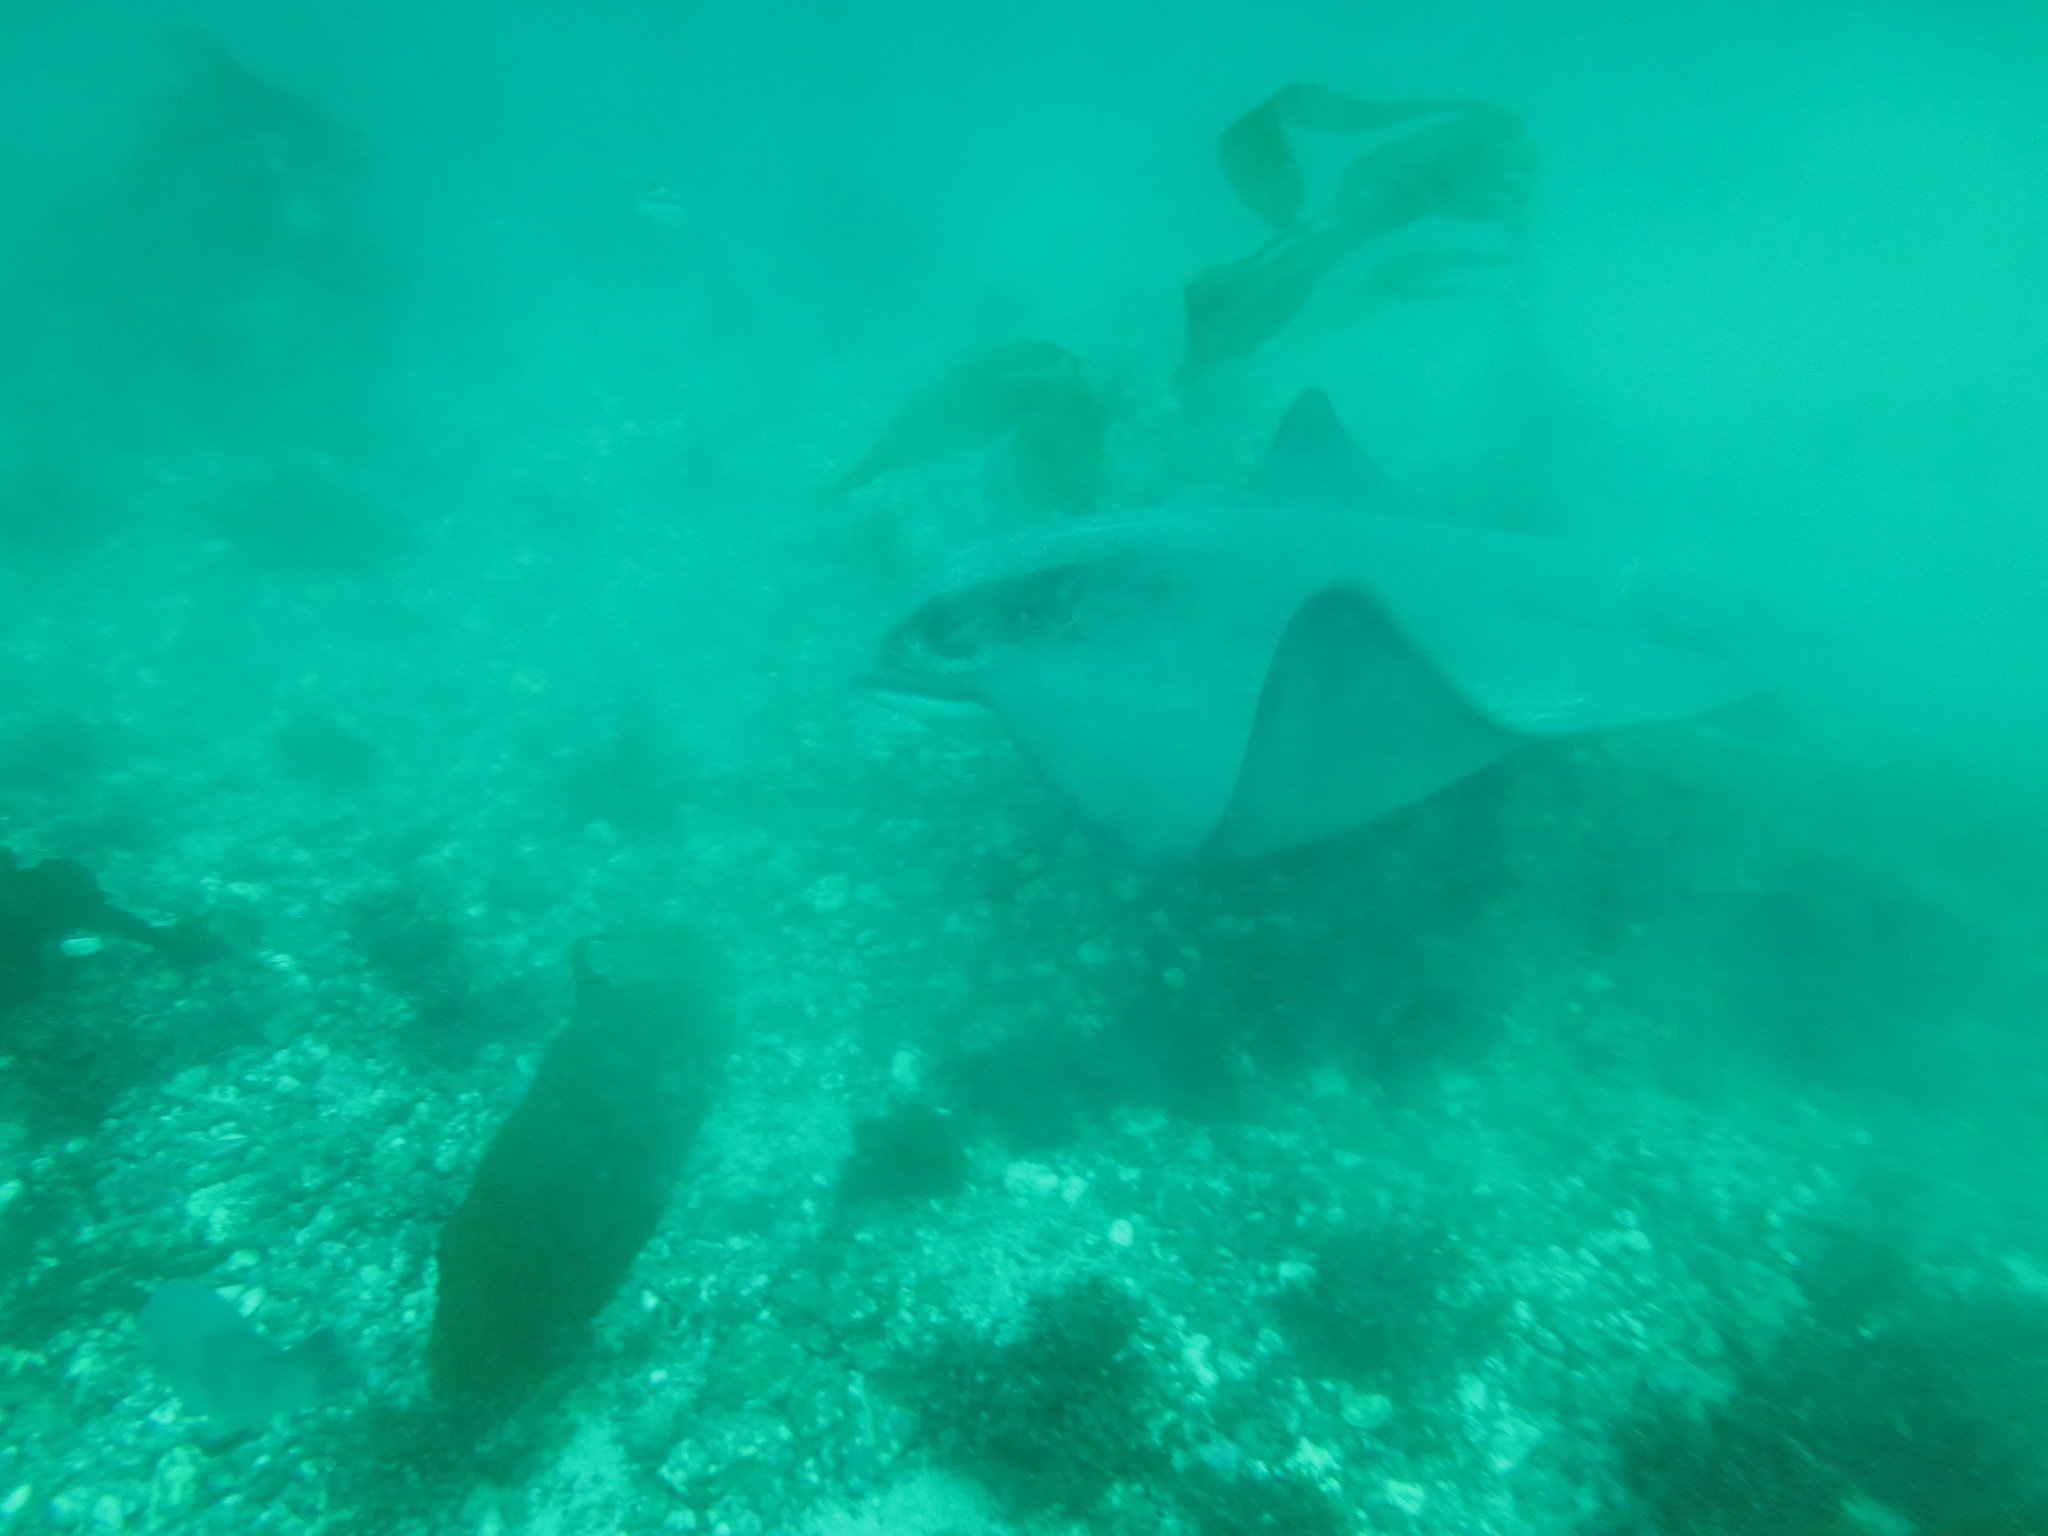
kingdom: Animalia
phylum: Chordata
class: Elasmobranchii
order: Myliobatiformes
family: Myliobatidae
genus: Myliobatis
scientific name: Myliobatis californica
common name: Bat ray
